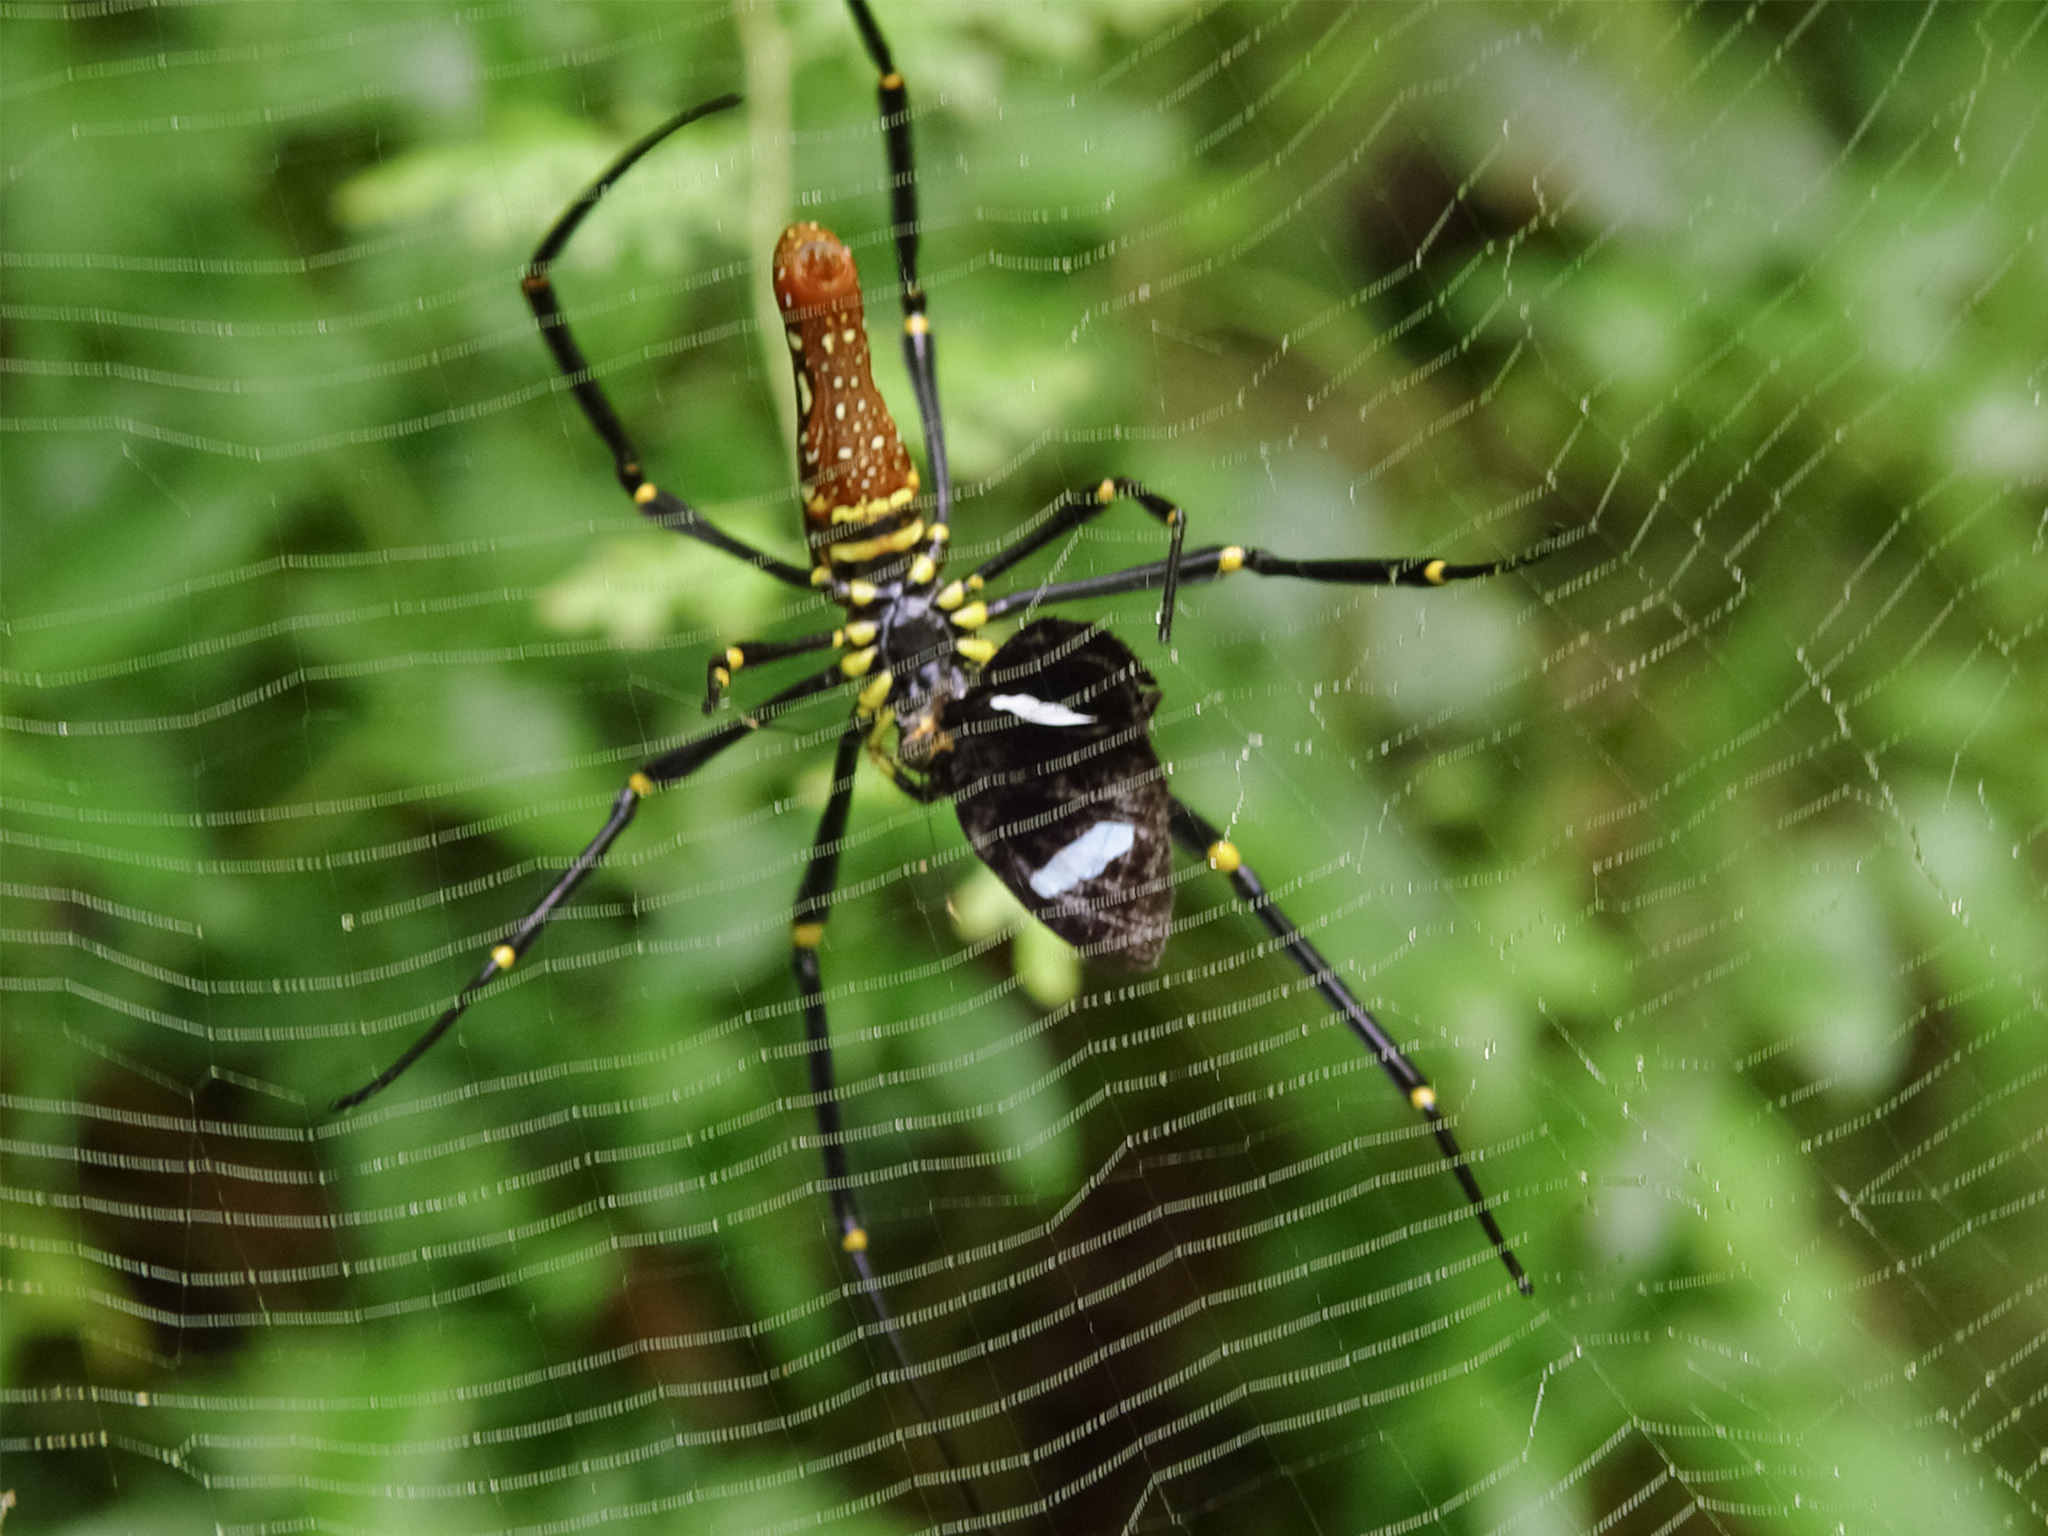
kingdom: Animalia
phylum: Arthropoda
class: Arachnida
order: Araneae
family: Araneidae
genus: Nephila
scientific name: Nephila pilipes
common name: Giant golden orb weaver
